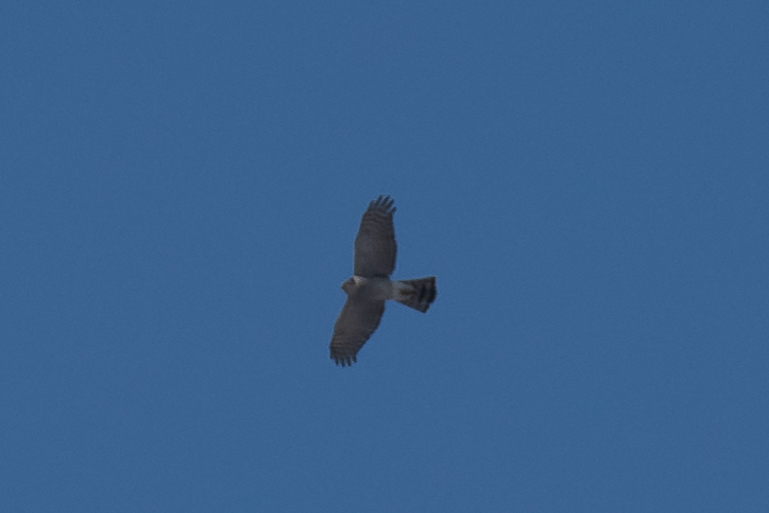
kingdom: Animalia
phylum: Chordata
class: Aves
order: Accipitriformes
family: Accipitridae
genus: Accipiter
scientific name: Accipiter nisus
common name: Eurasian sparrowhawk
